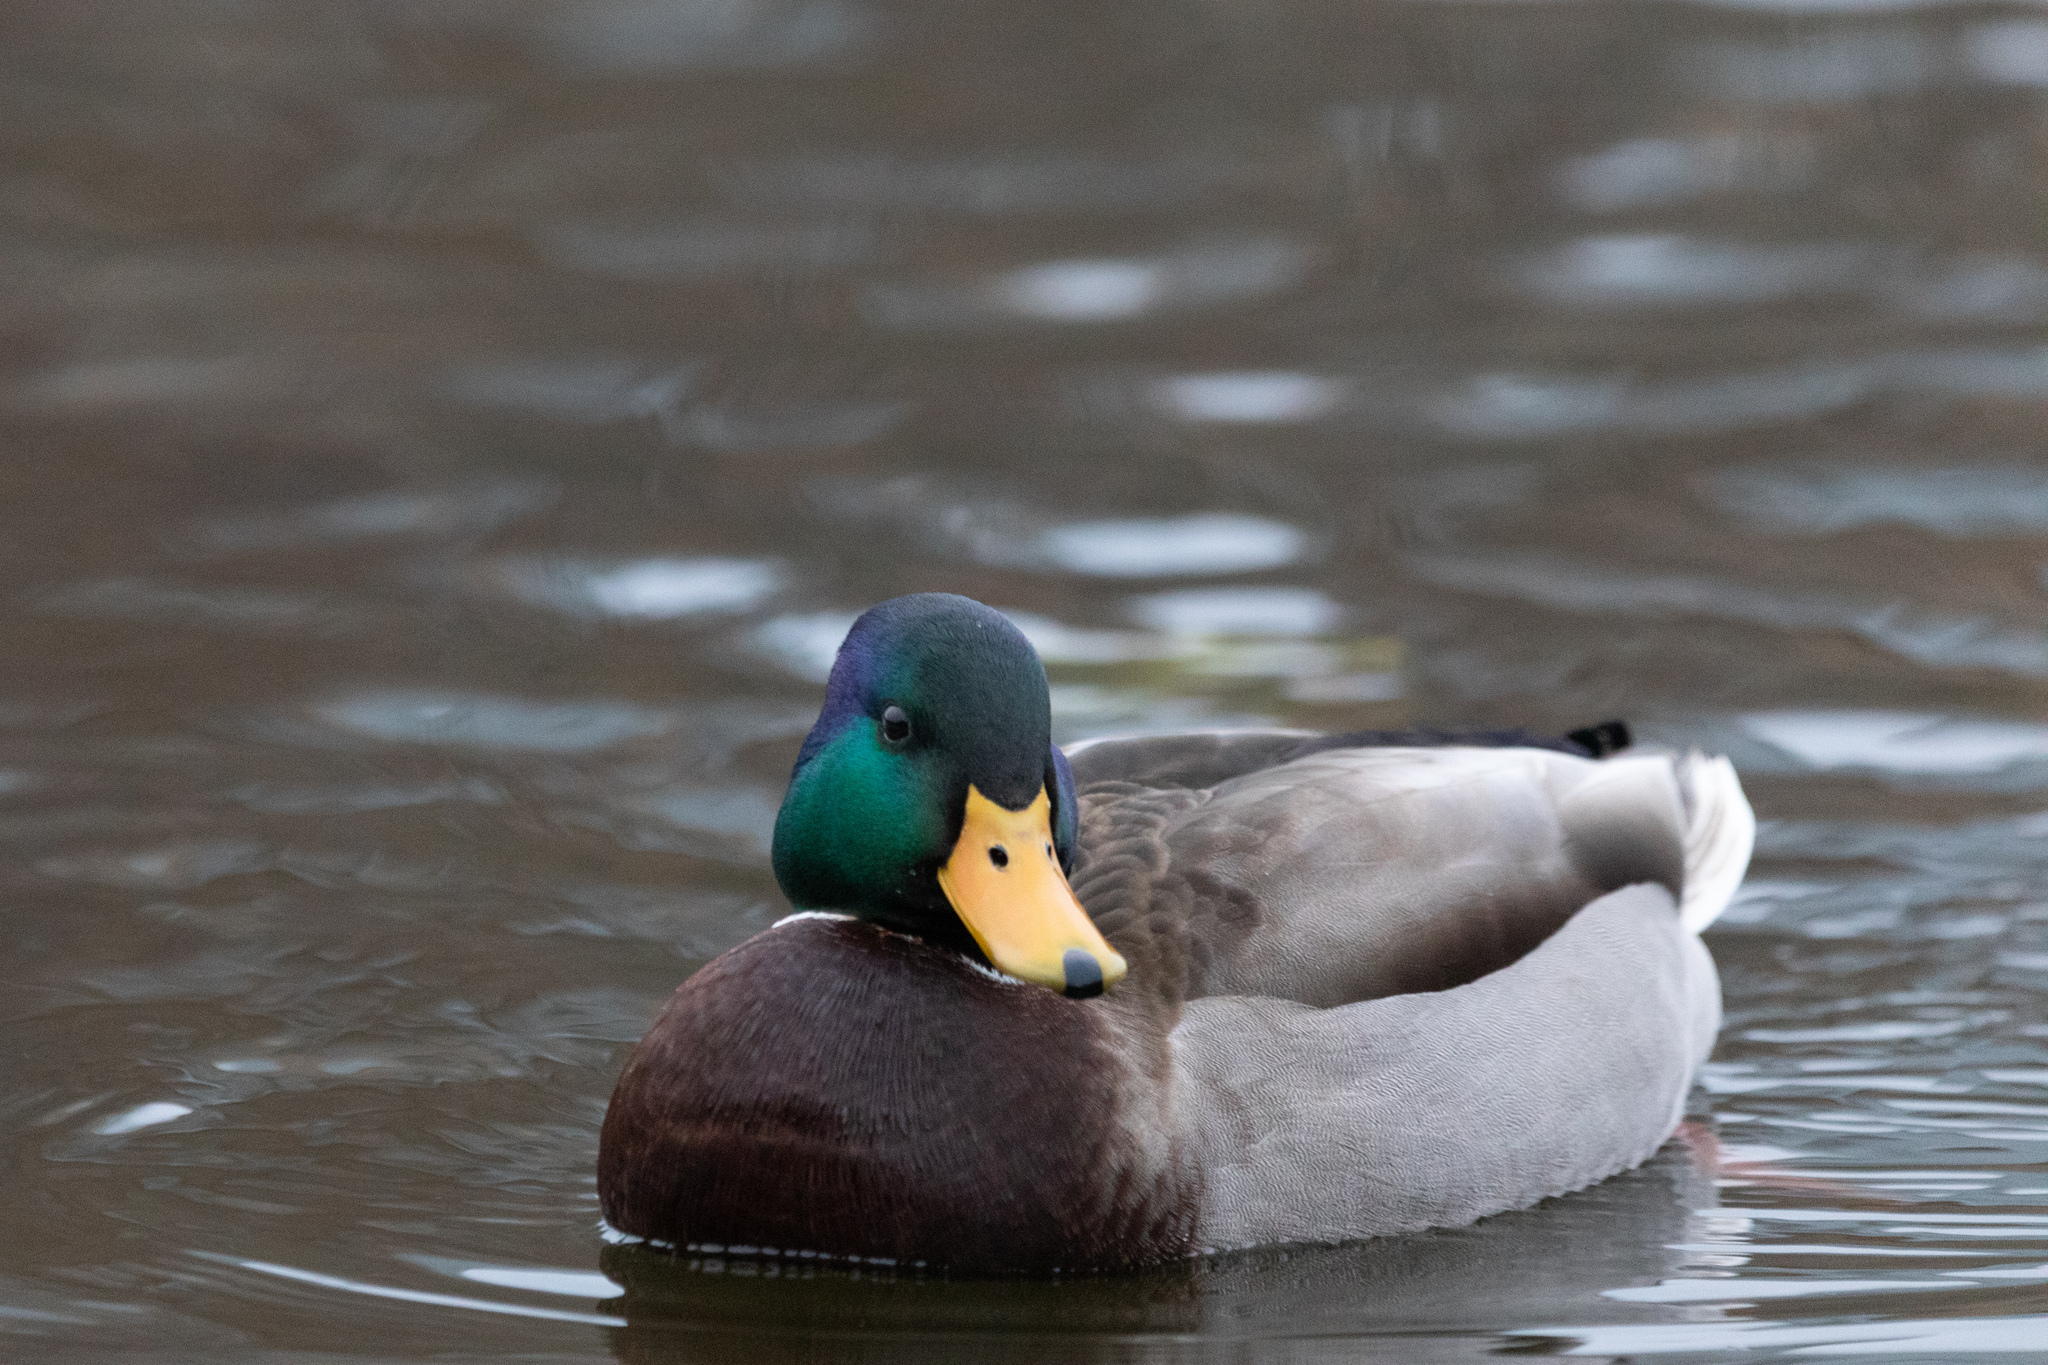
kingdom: Animalia
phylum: Chordata
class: Aves
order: Anseriformes
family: Anatidae
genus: Anas
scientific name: Anas platyrhynchos
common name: Mallard
